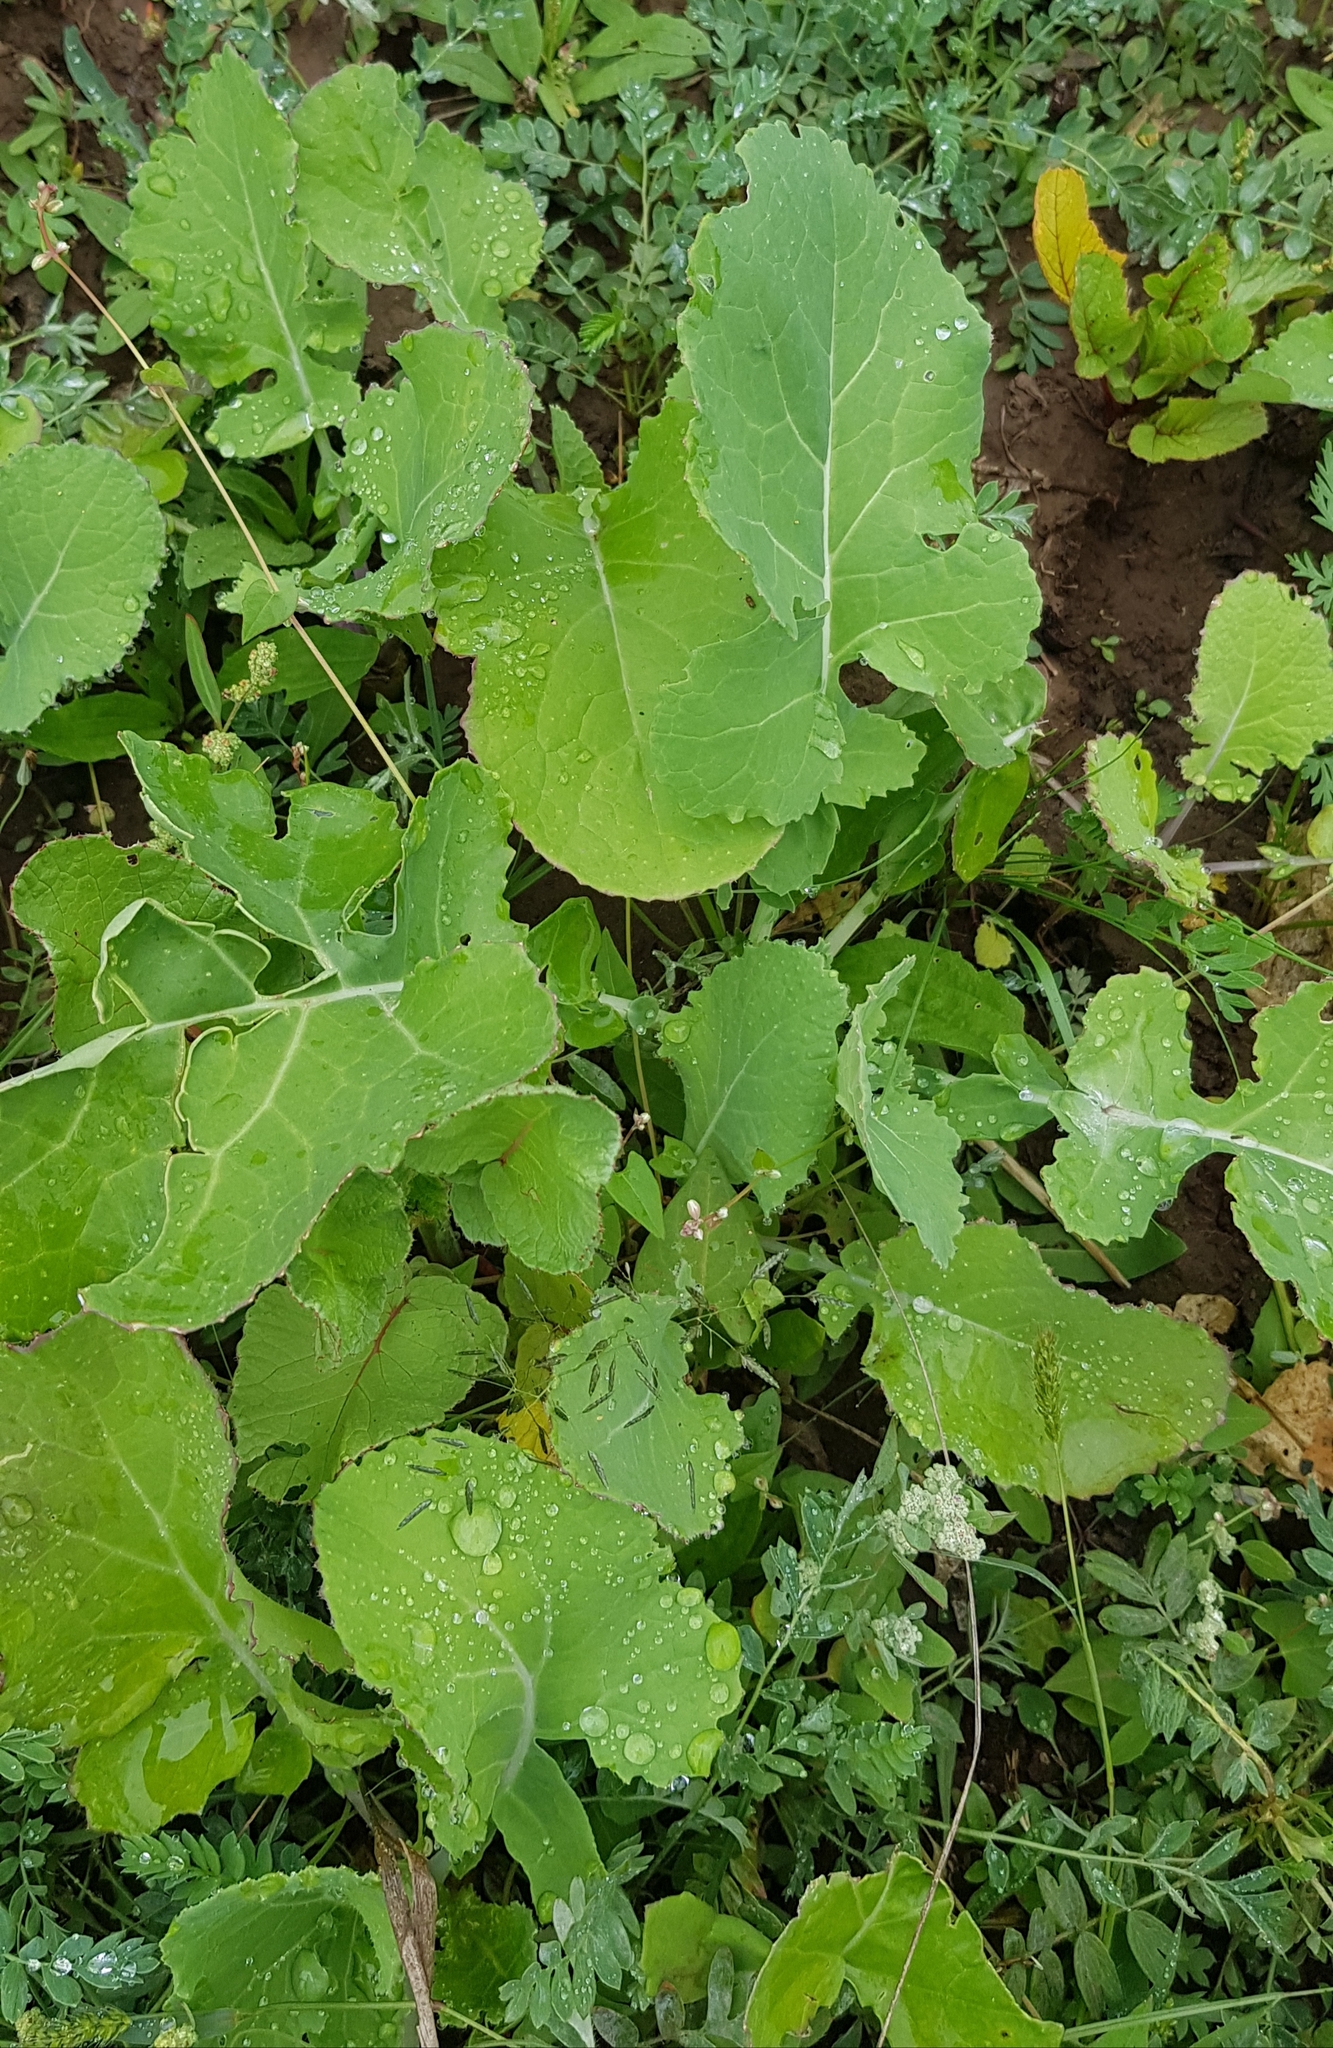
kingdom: Plantae
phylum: Tracheophyta
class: Magnoliopsida
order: Brassicales
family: Brassicaceae
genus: Brassica
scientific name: Brassica napus
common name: Rape
